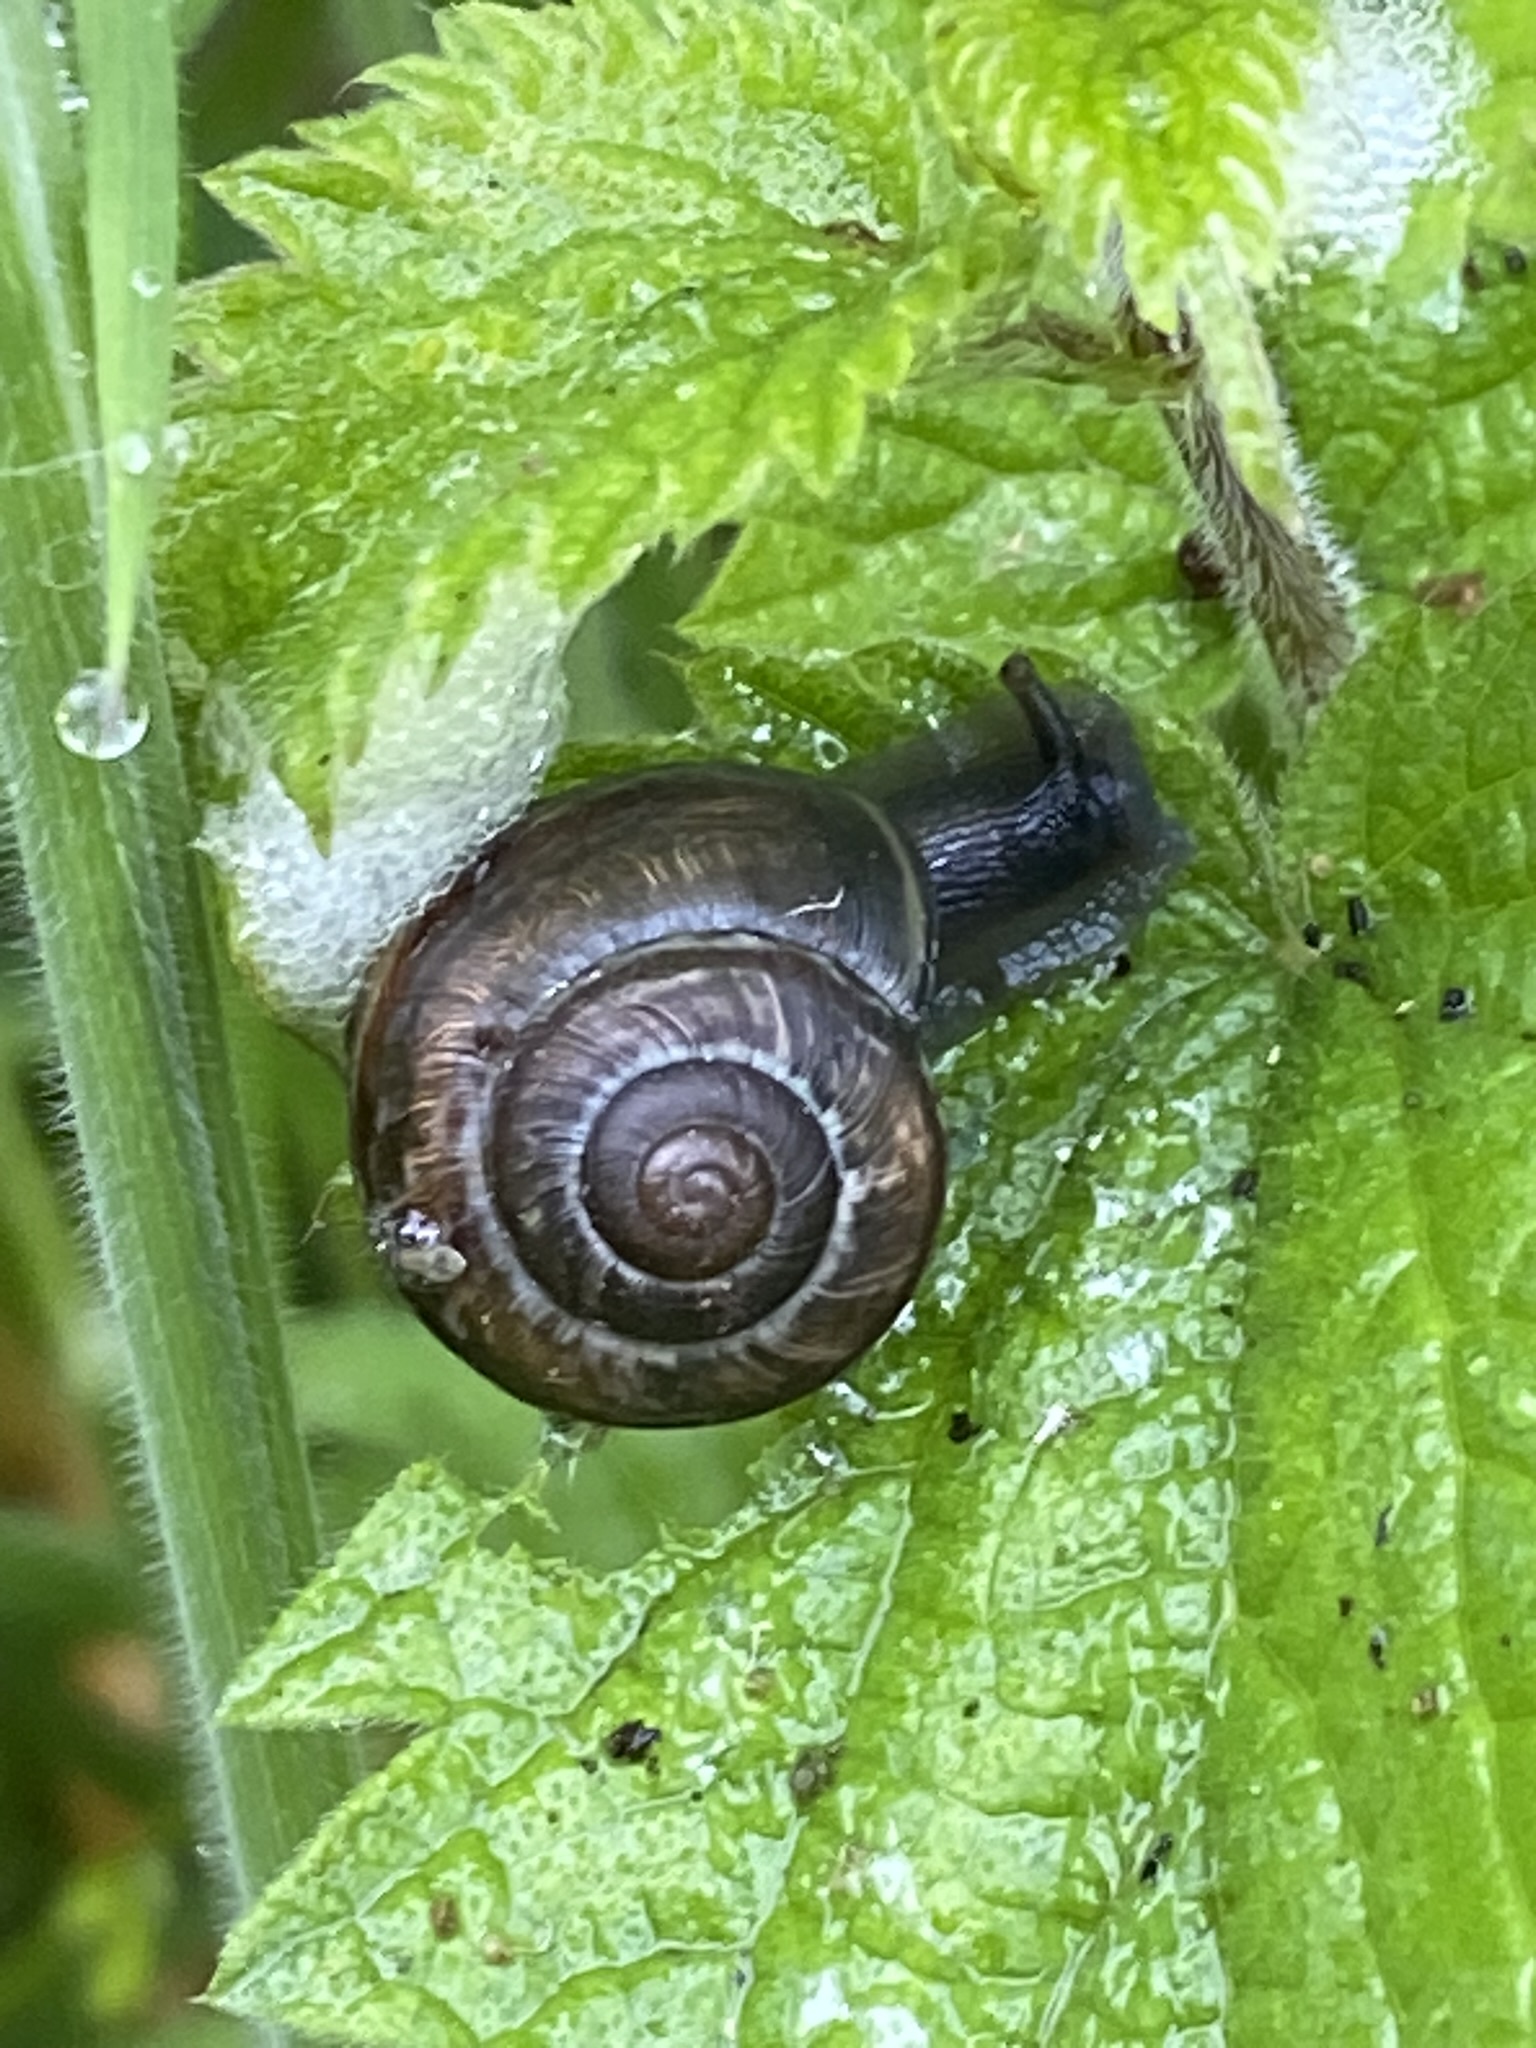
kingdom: Animalia
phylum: Mollusca
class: Gastropoda
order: Stylommatophora
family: Helicidae
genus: Arianta
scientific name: Arianta arbustorum
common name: Copse snail
